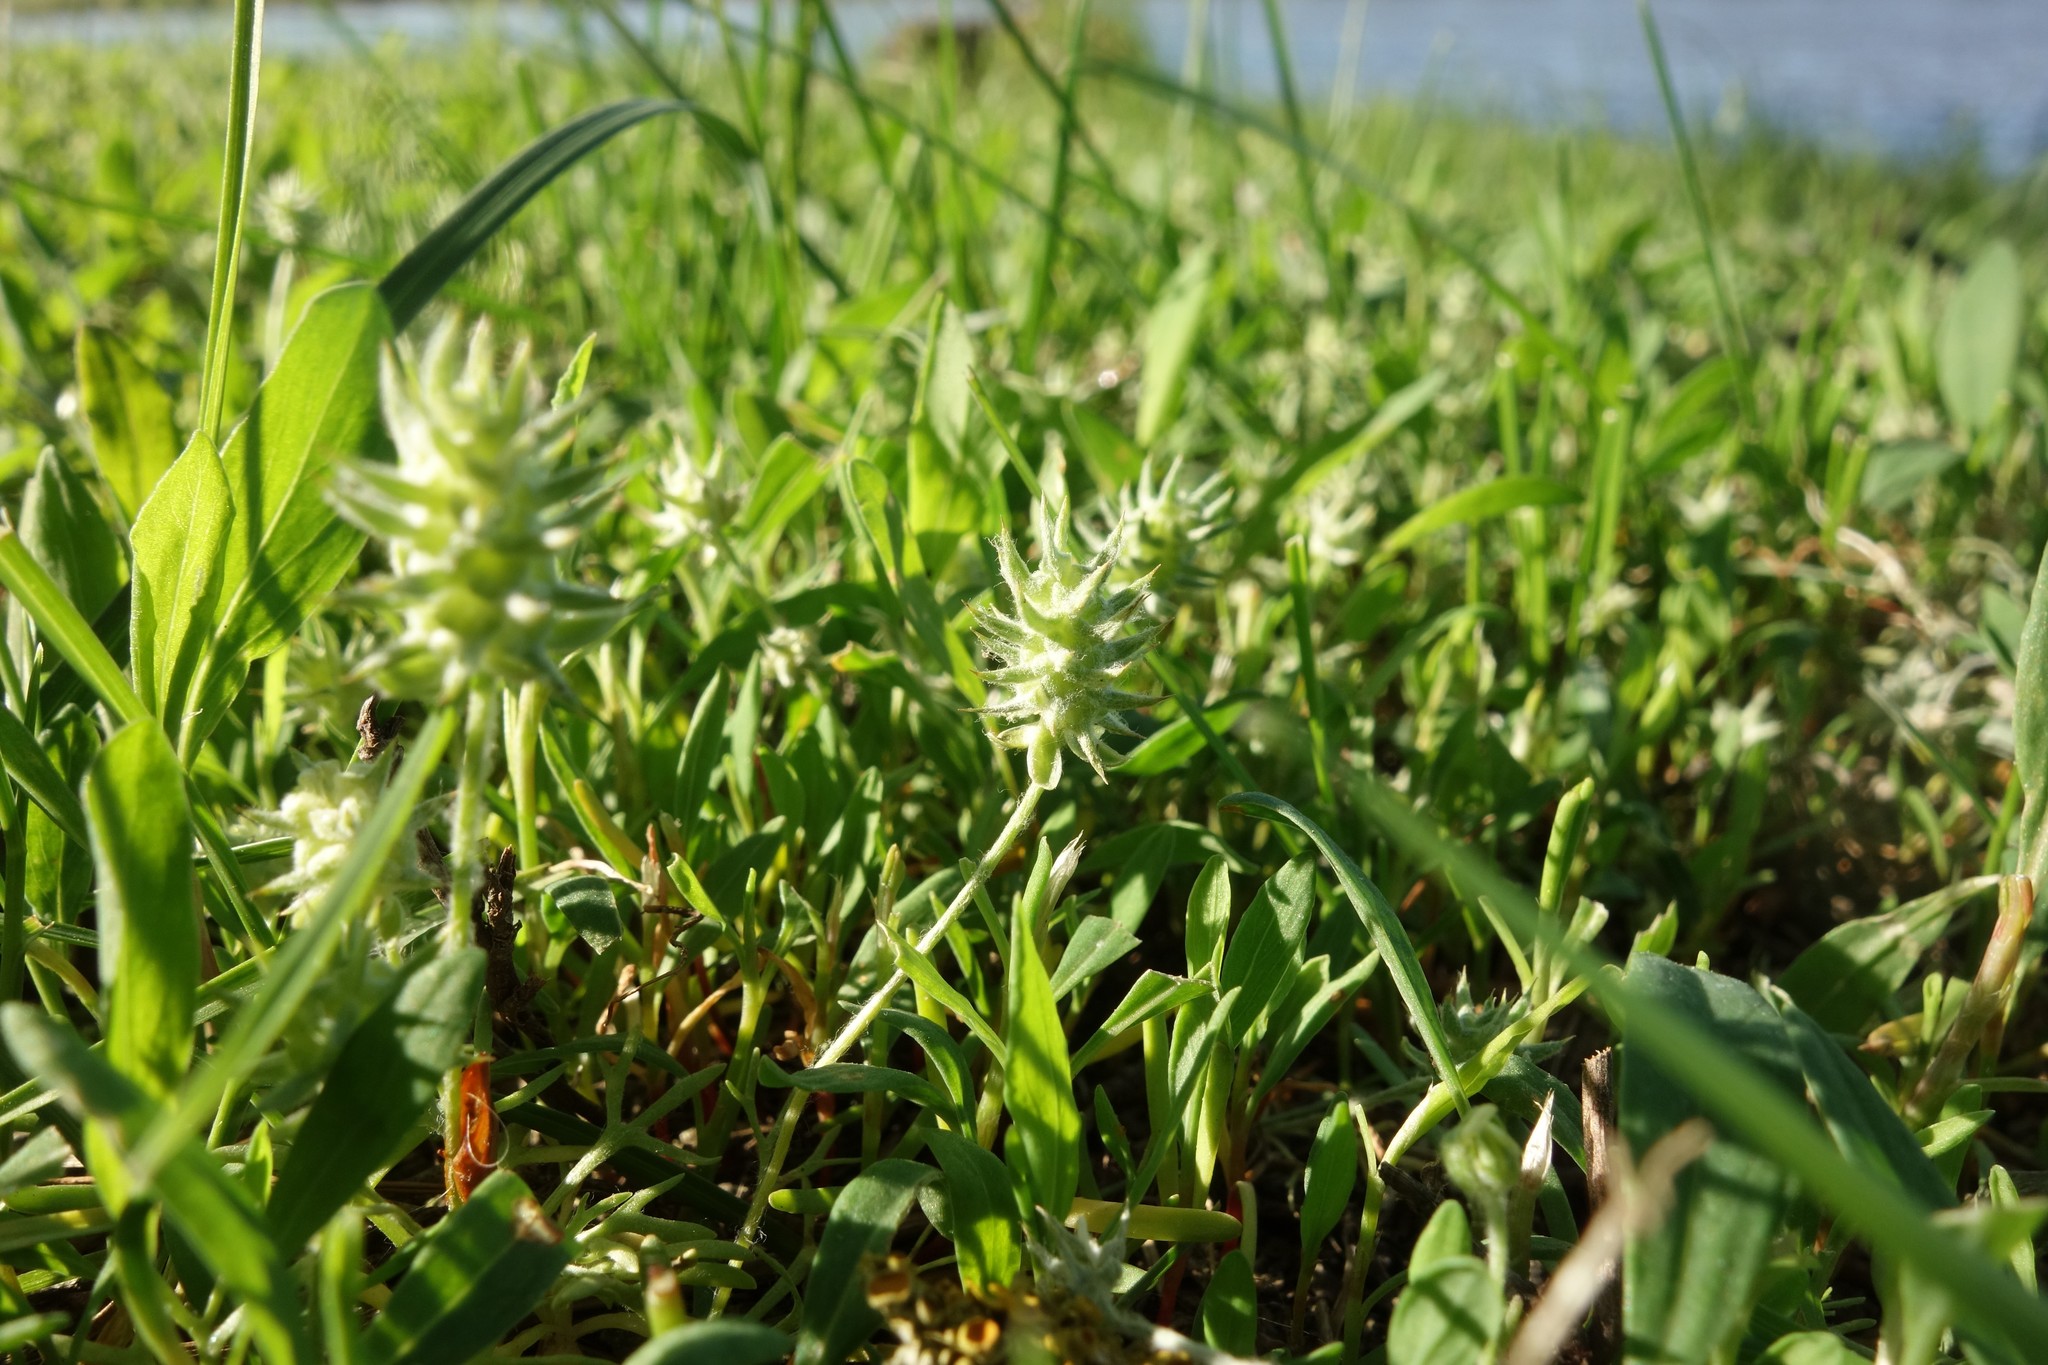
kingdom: Plantae
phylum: Tracheophyta
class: Magnoliopsida
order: Ranunculales
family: Ranunculaceae
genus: Ceratocephala
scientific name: Ceratocephala orthoceras
